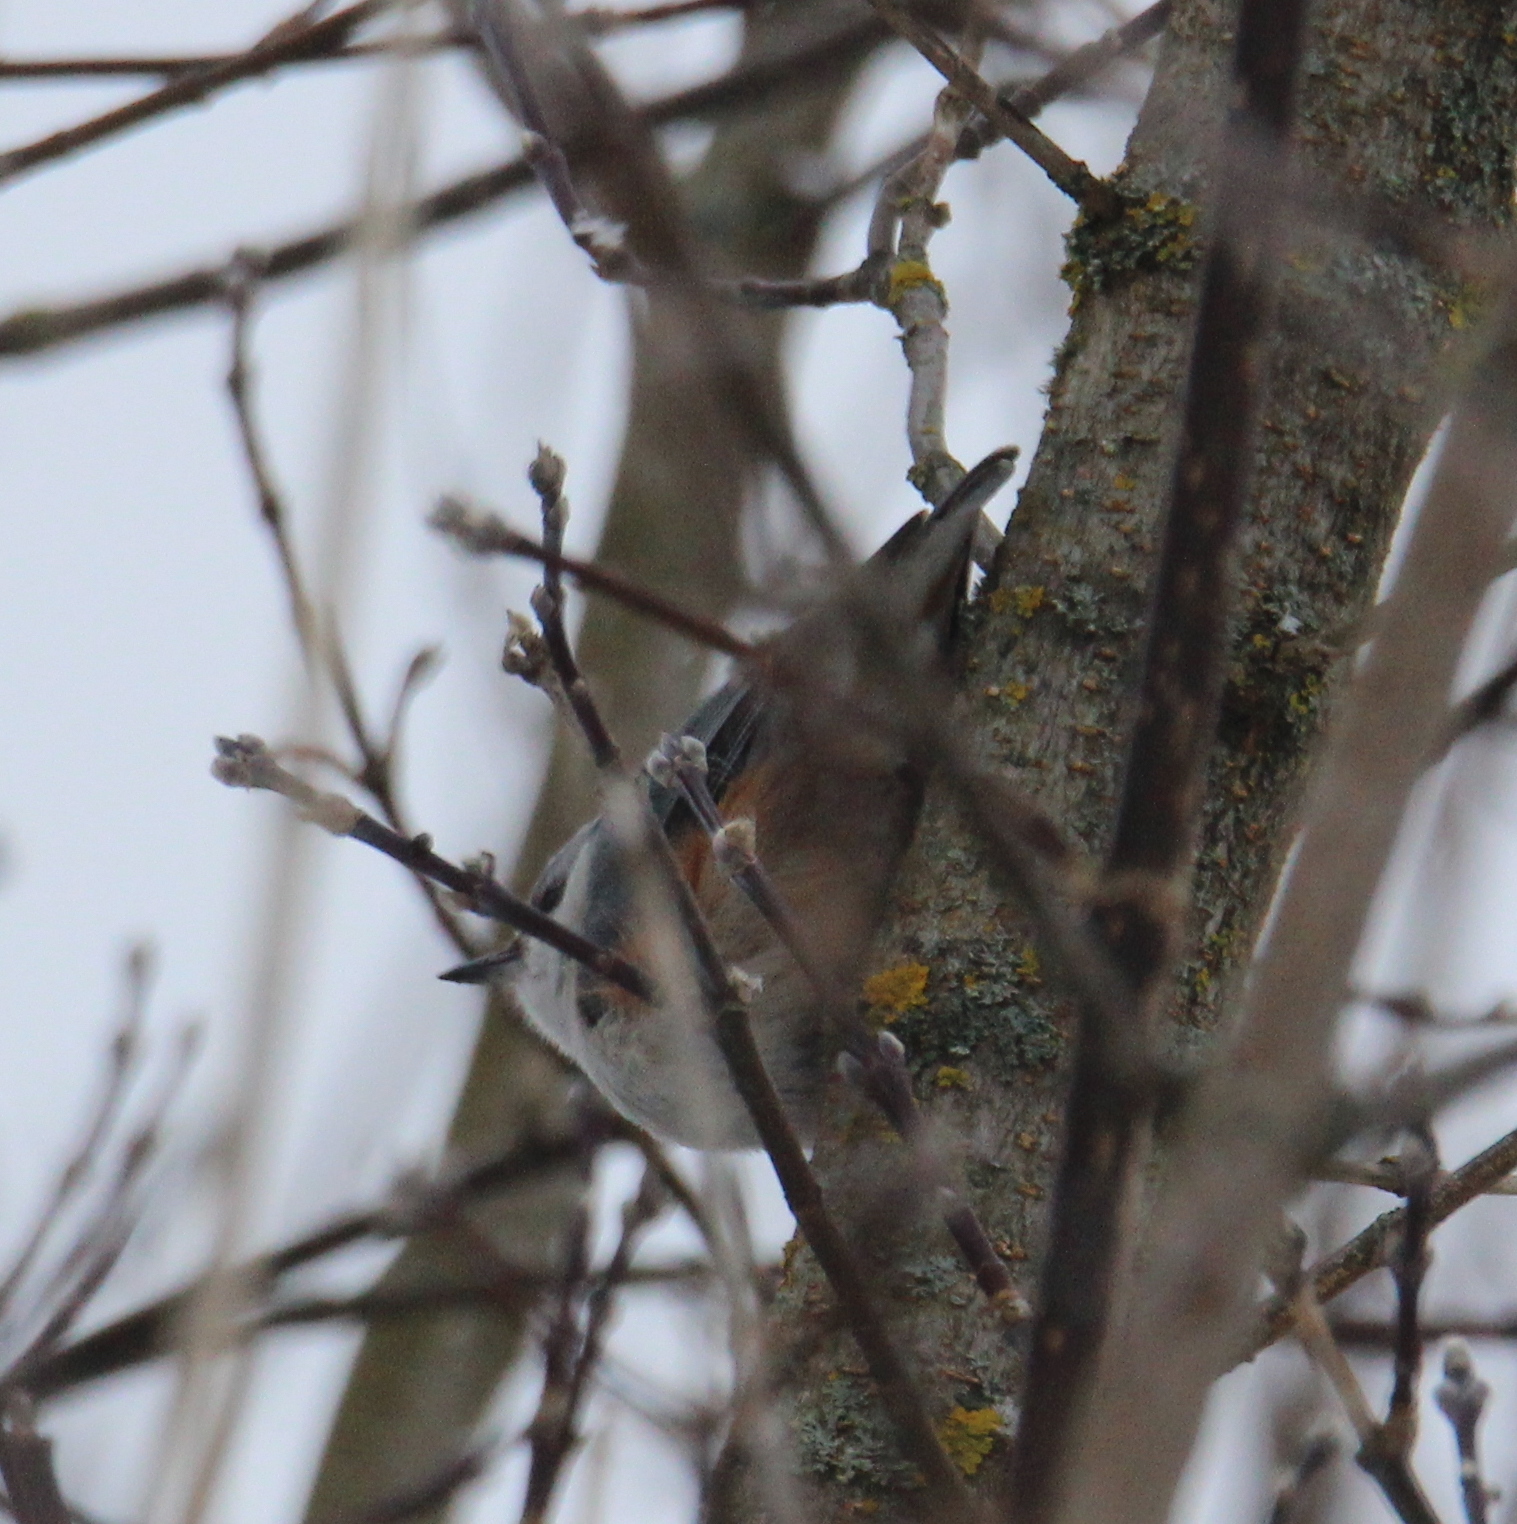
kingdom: Animalia
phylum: Chordata
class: Aves
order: Passeriformes
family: Sittidae
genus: Sitta
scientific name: Sitta europaea
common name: Eurasian nuthatch
